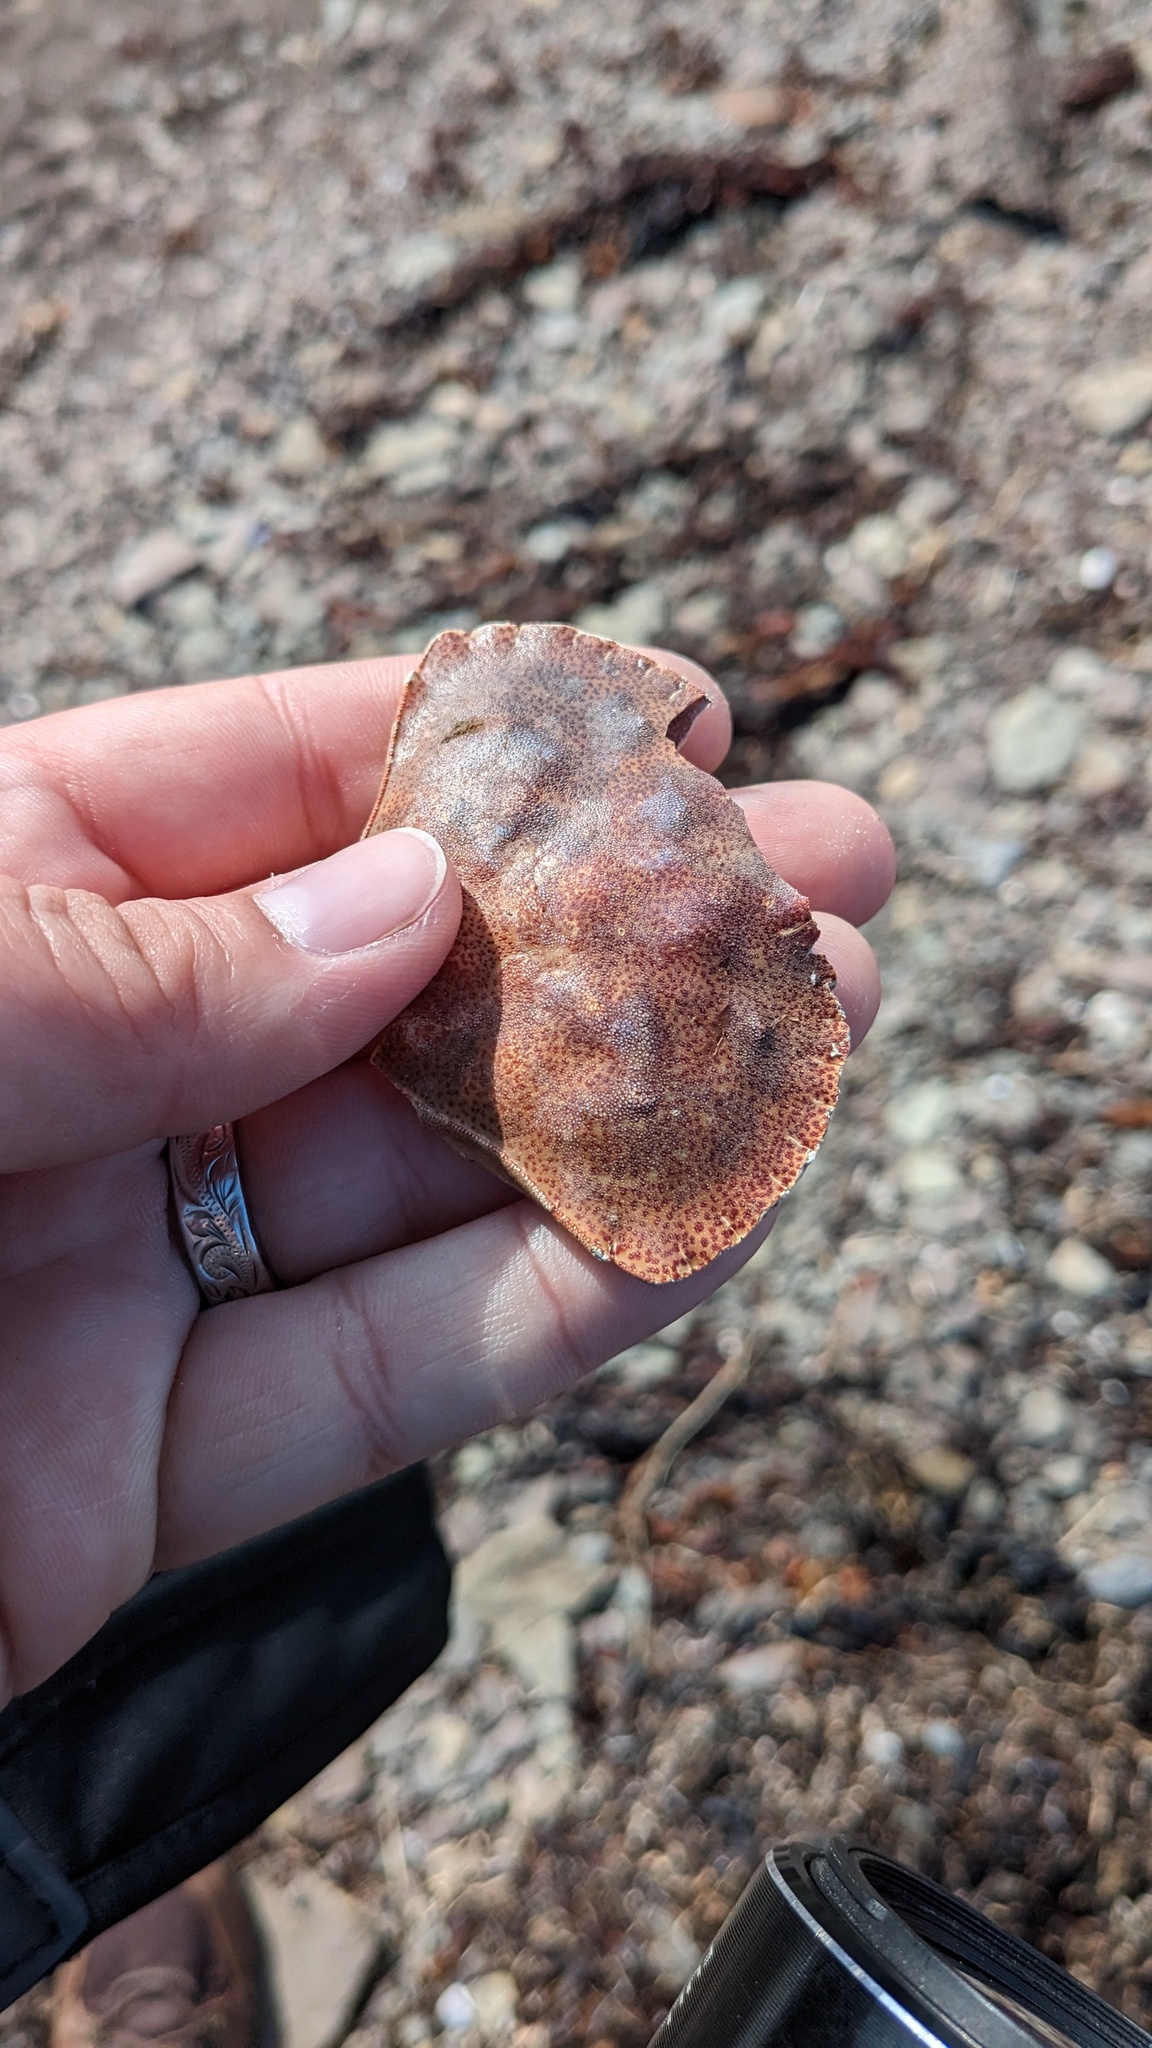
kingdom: Animalia
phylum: Arthropoda
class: Malacostraca
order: Decapoda
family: Cancridae
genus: Cancer
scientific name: Cancer irroratus
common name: Atlantic rock crab
